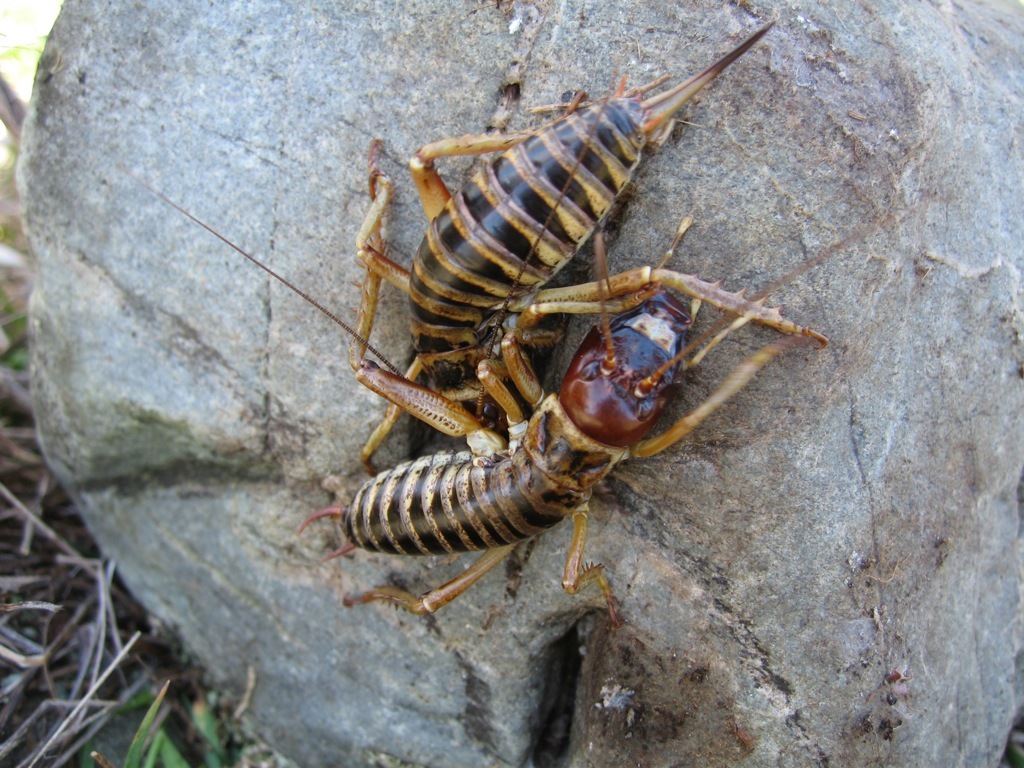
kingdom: Animalia
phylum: Arthropoda
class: Insecta
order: Orthoptera
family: Anostostomatidae
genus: Hemideina
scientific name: Hemideina maori
